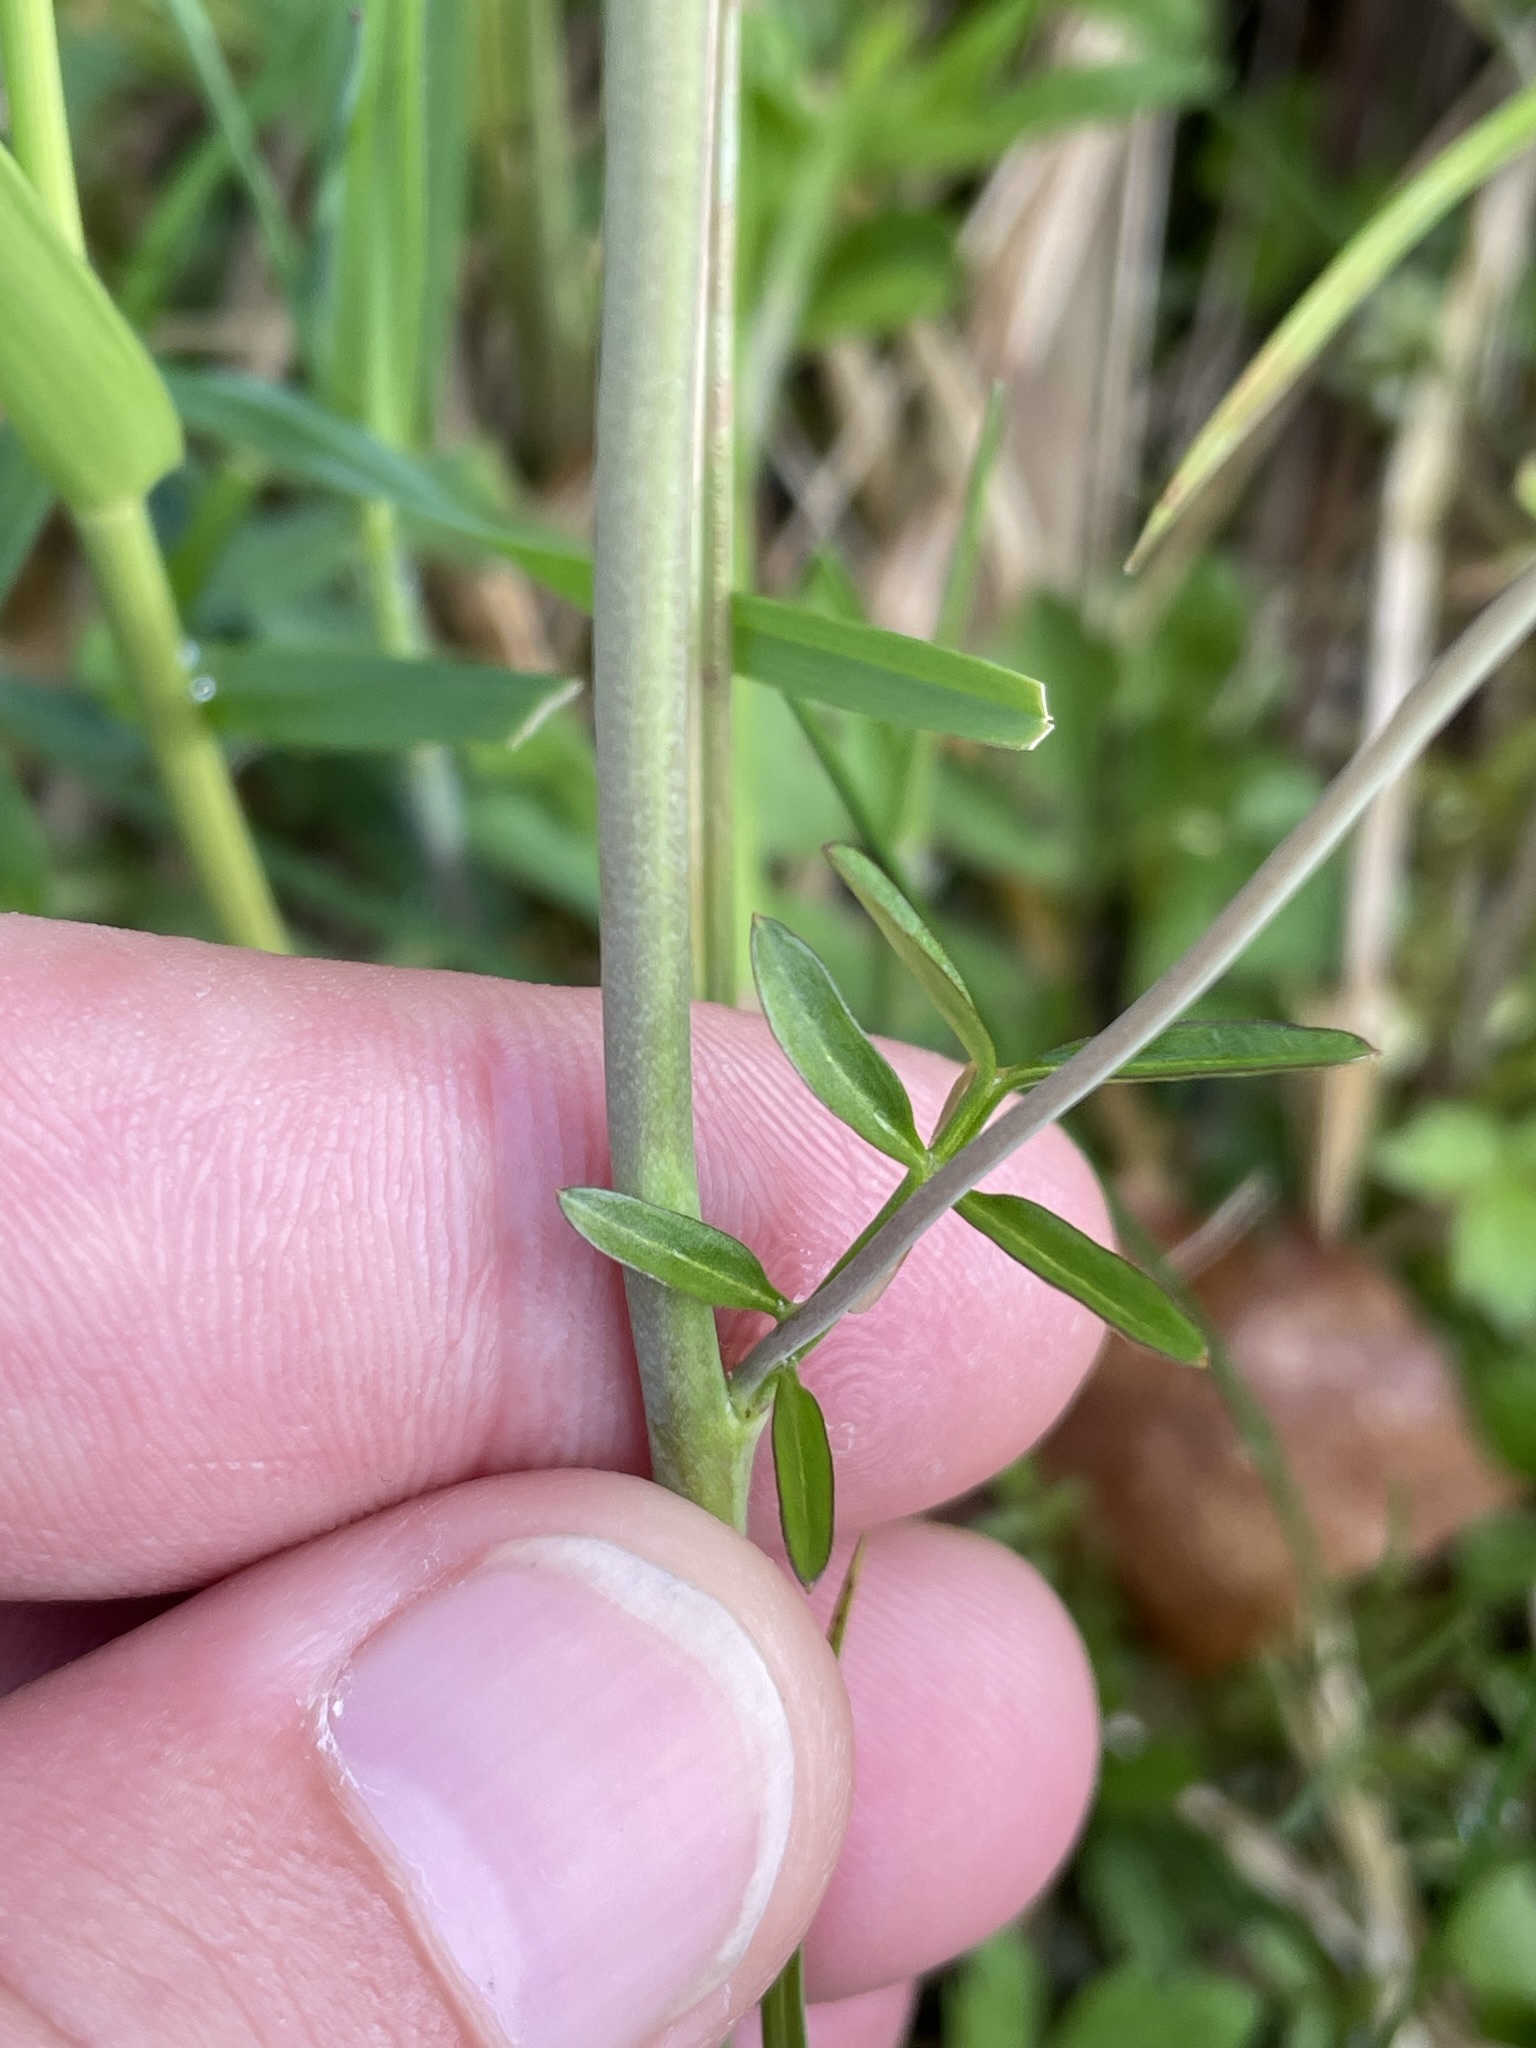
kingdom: Plantae
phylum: Tracheophyta
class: Magnoliopsida
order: Brassicales
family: Brassicaceae
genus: Cardamine
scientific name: Cardamine pratensis
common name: Cuckoo flower
